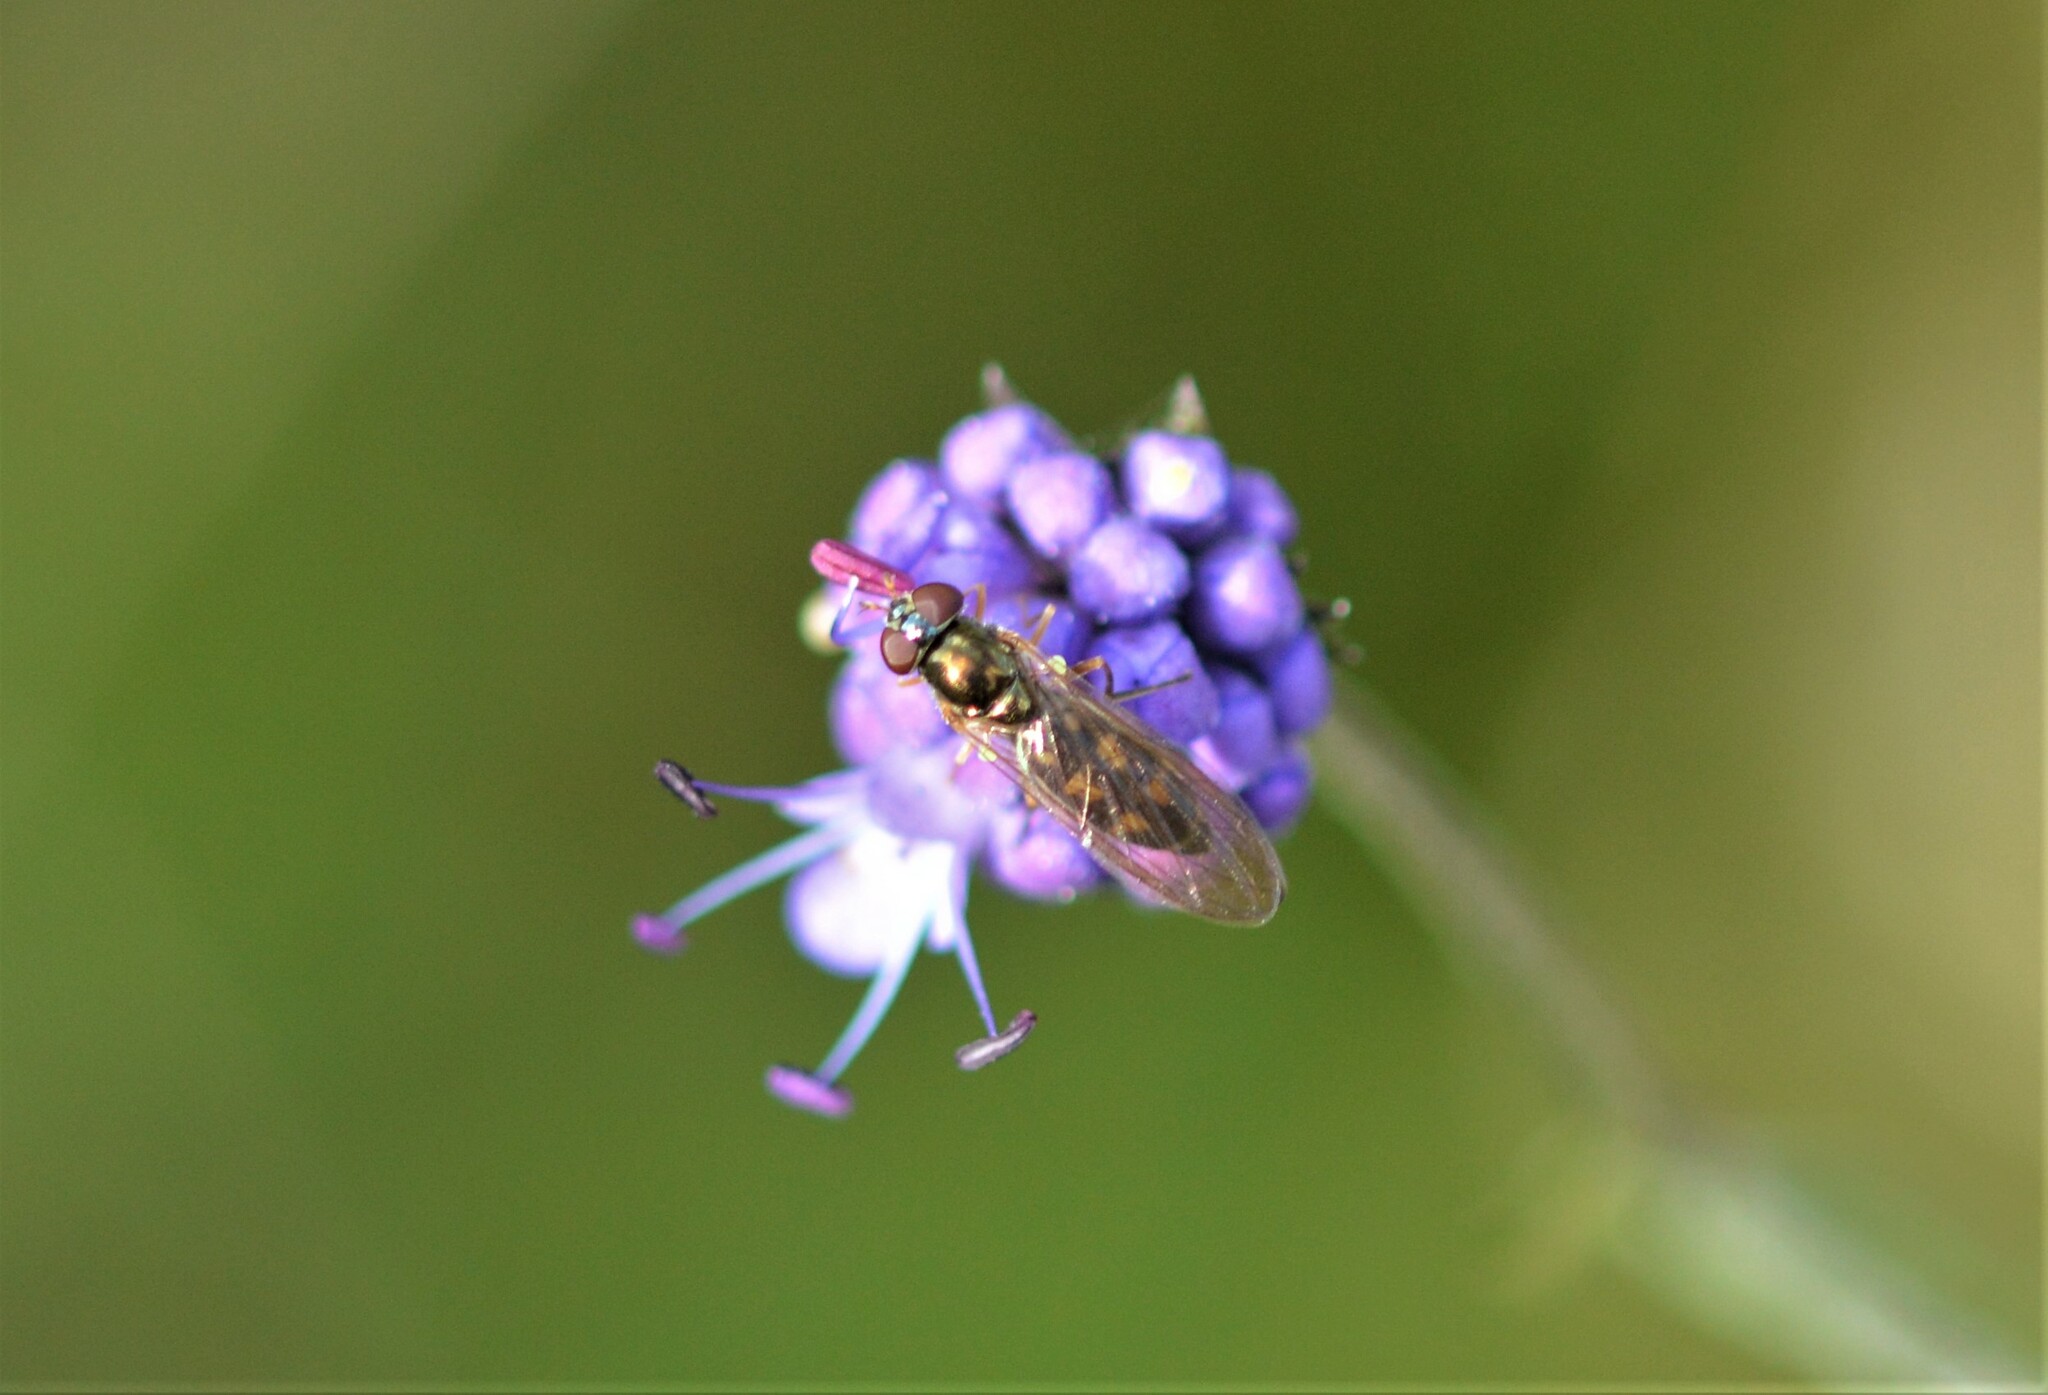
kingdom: Animalia
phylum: Arthropoda
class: Insecta
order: Diptera
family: Syrphidae
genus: Melanostoma
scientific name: Melanostoma scalare
